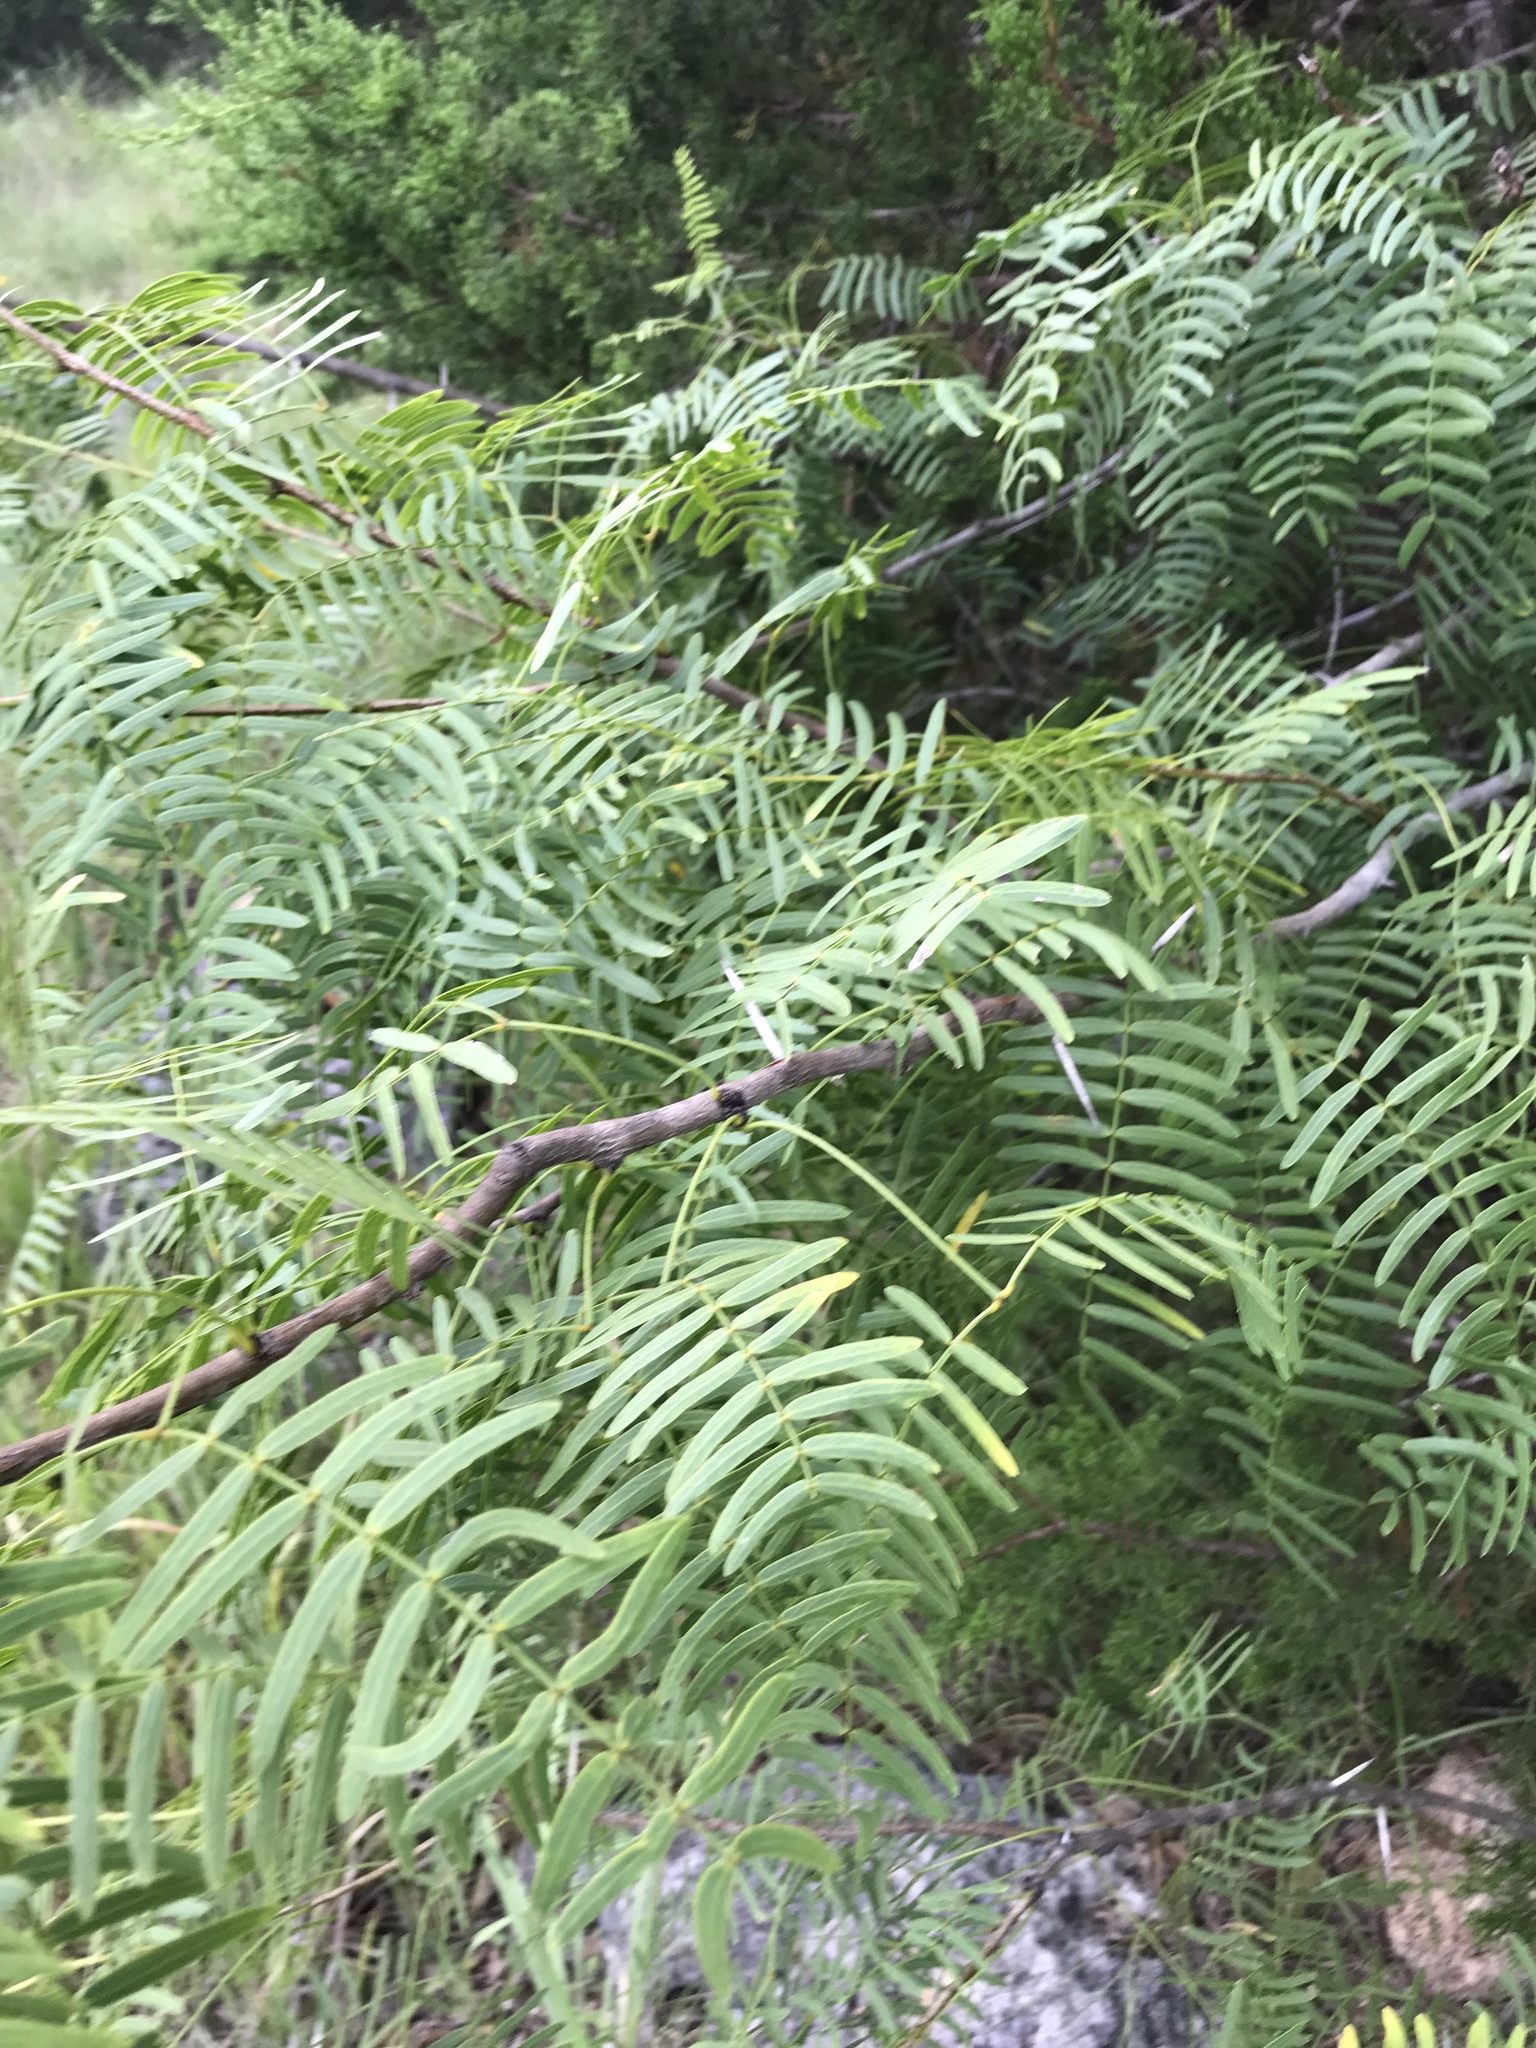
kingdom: Plantae
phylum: Tracheophyta
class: Magnoliopsida
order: Fabales
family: Fabaceae
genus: Prosopis
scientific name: Prosopis glandulosa
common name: Honey mesquite
